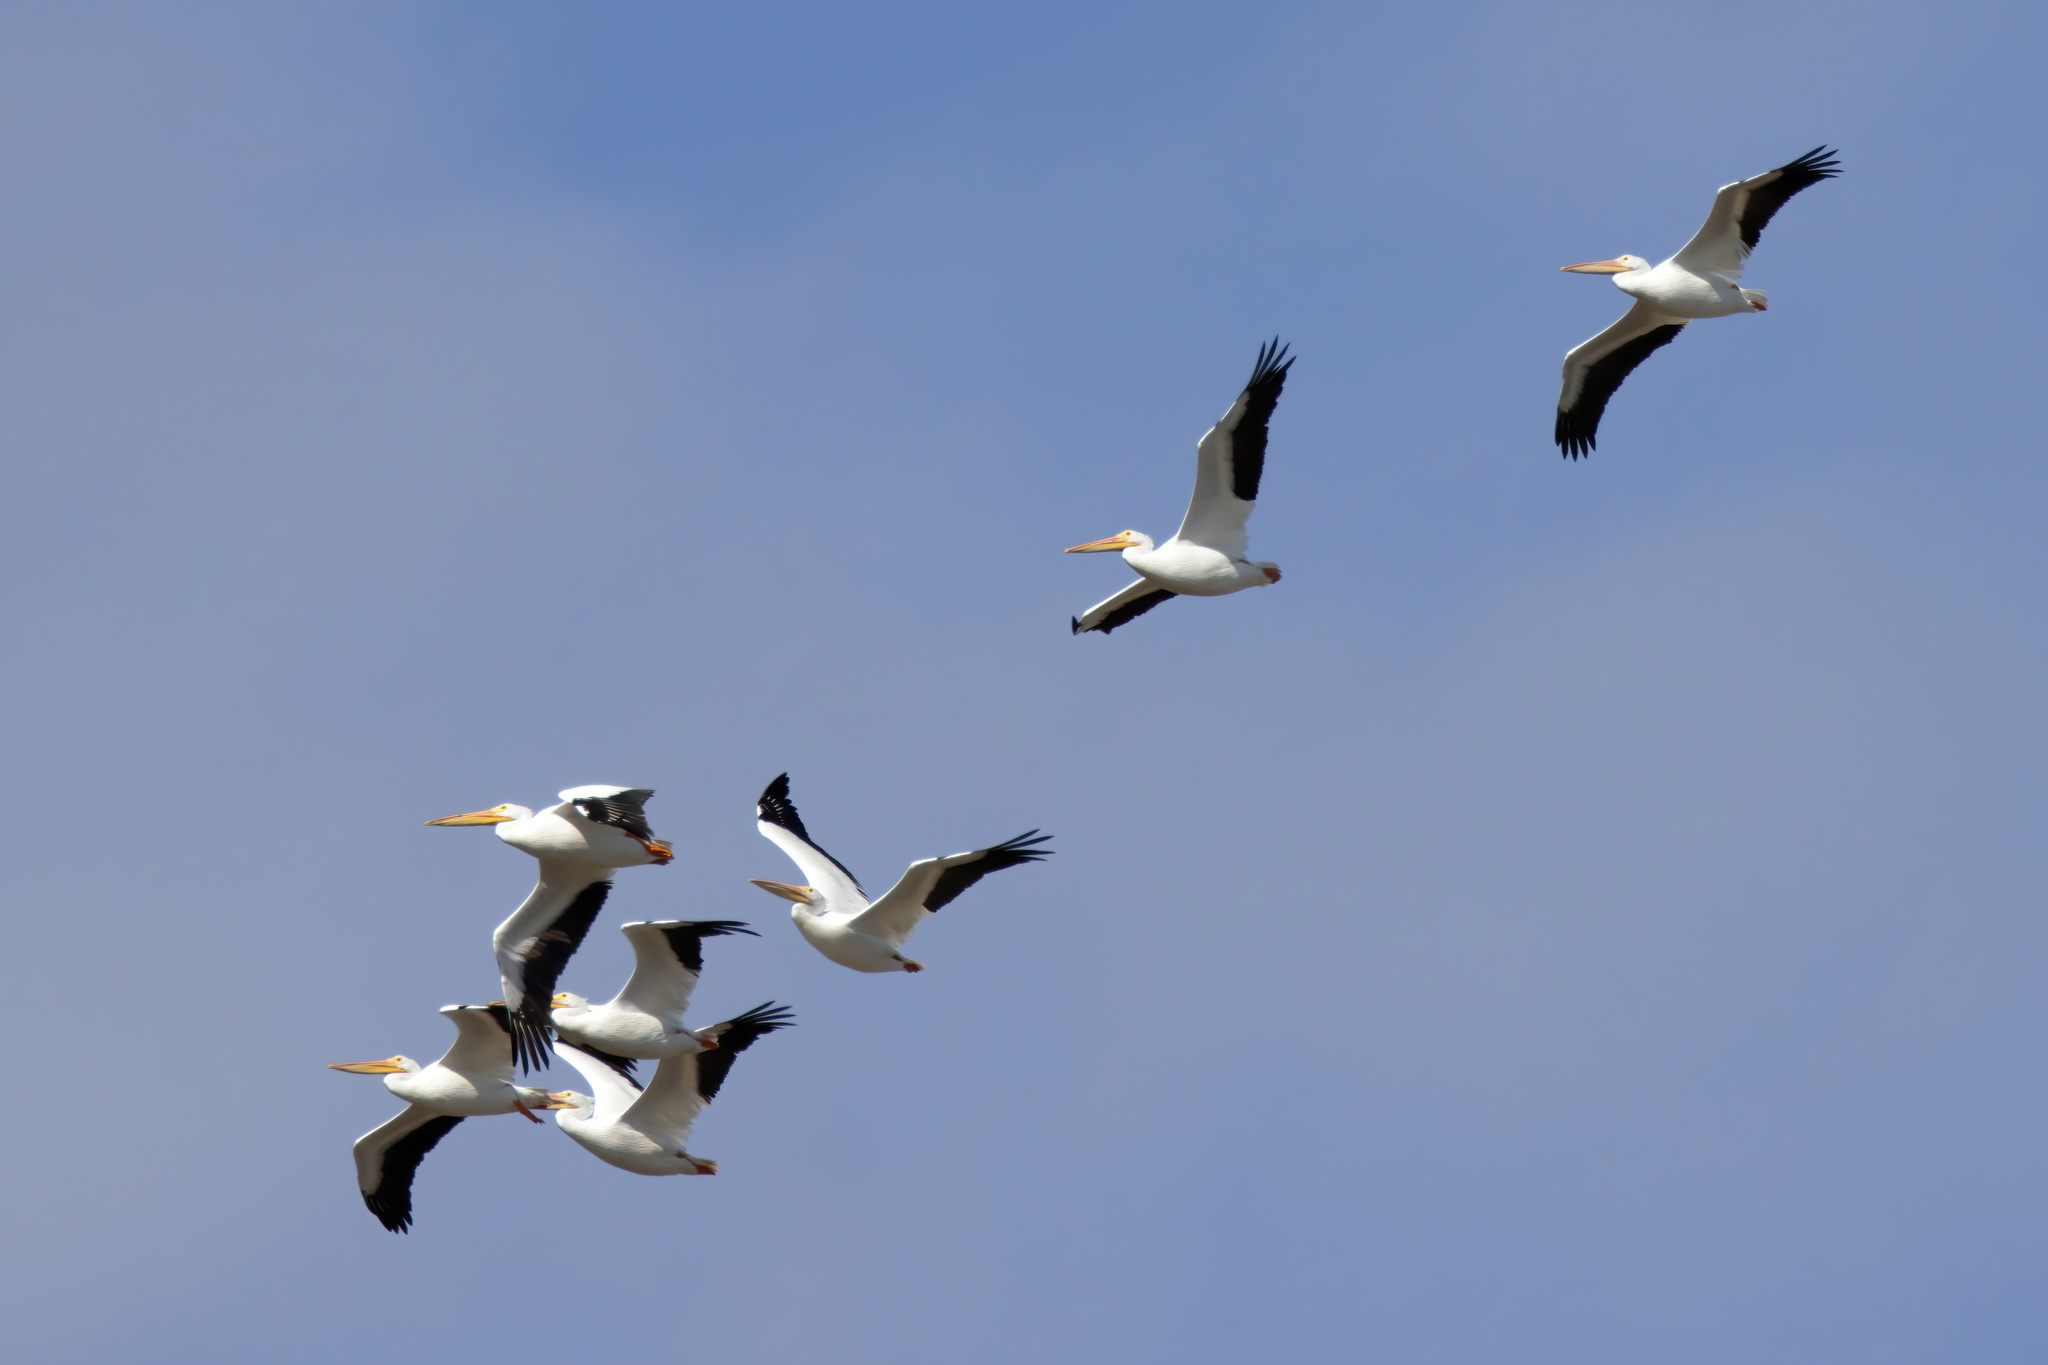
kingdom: Animalia
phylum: Chordata
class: Aves
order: Pelecaniformes
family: Pelecanidae
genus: Pelecanus
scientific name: Pelecanus erythrorhynchos
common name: American white pelican
